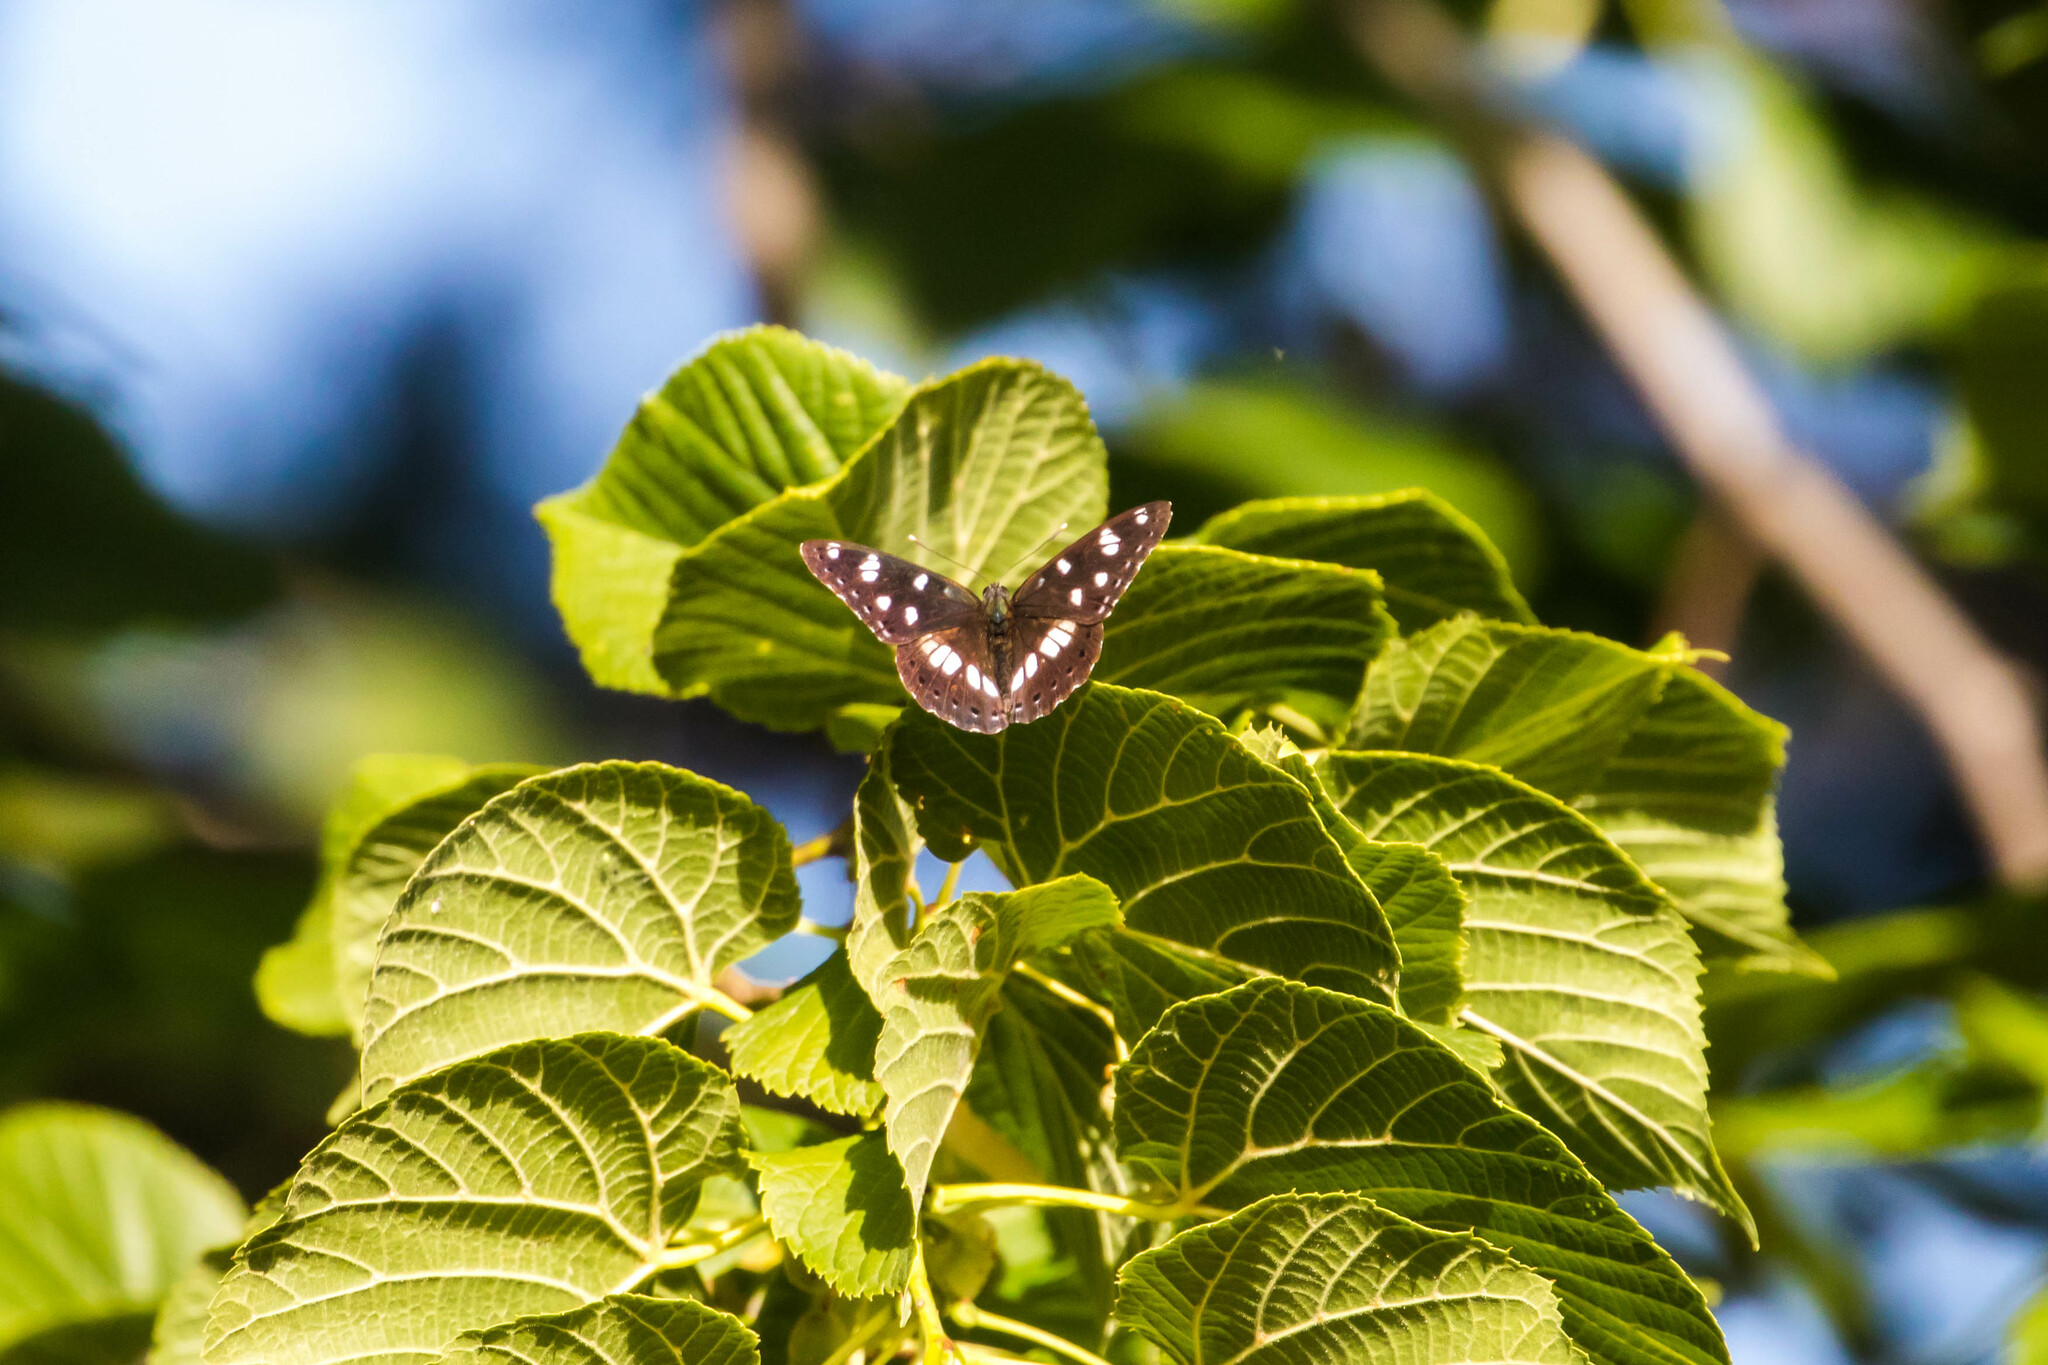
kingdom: Animalia
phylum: Arthropoda
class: Insecta
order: Lepidoptera
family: Nymphalidae
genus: Limenitis
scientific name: Limenitis reducta
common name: Southern white admiral
